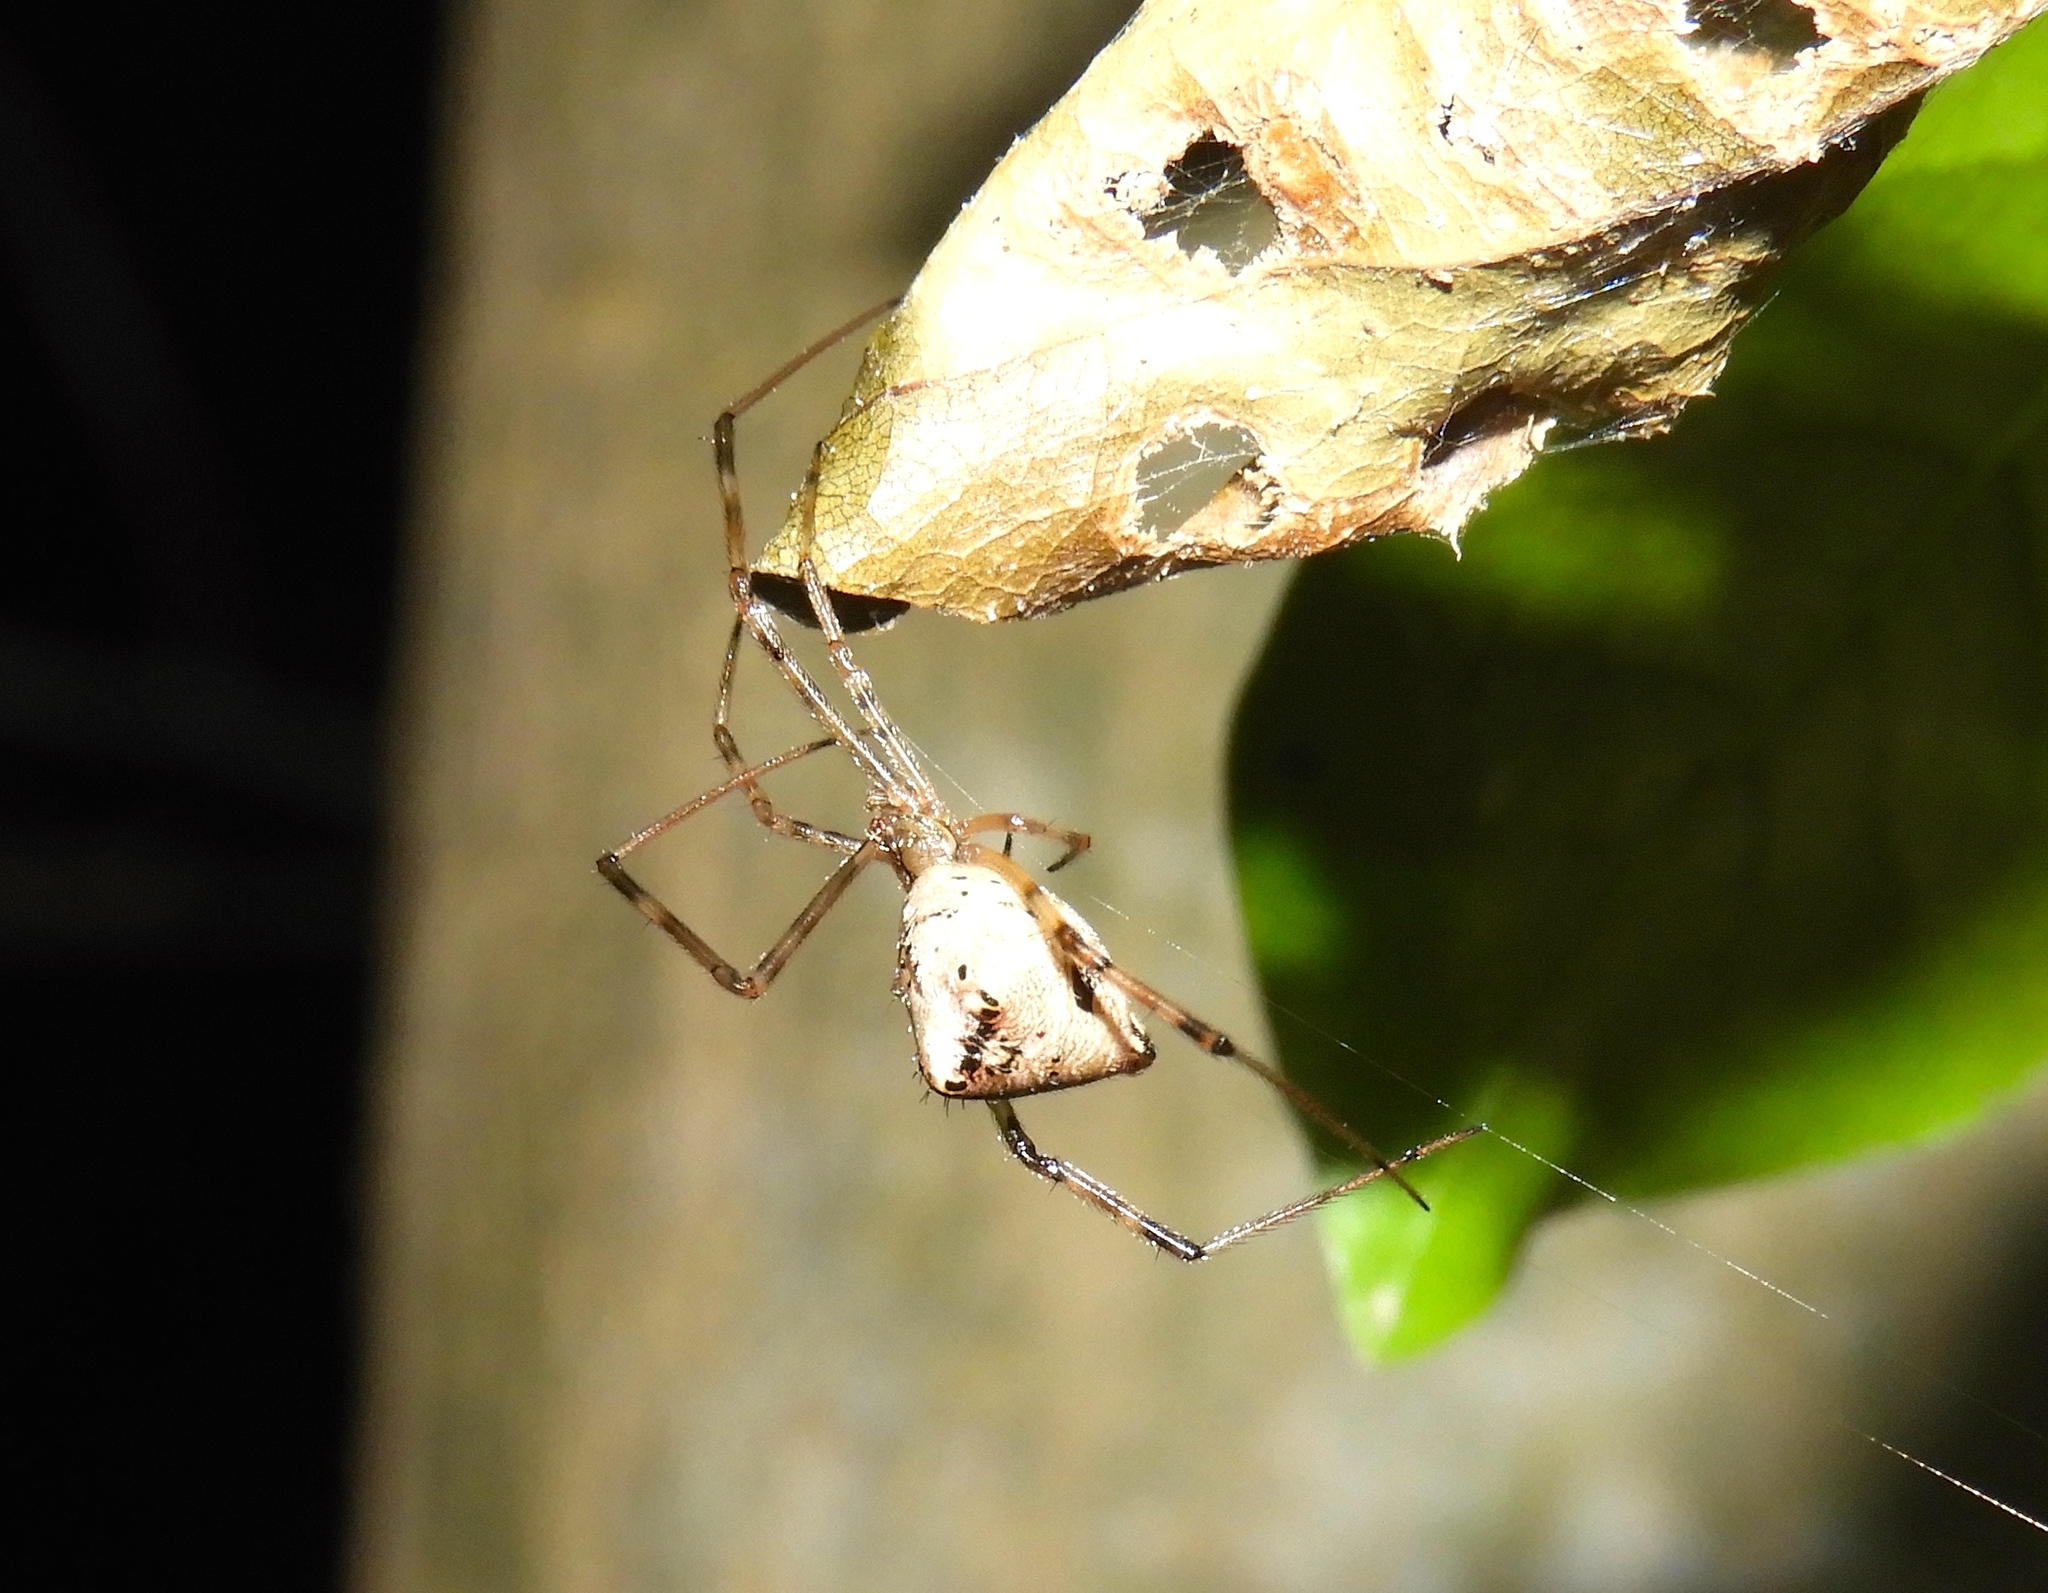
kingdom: Animalia
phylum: Arthropoda
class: Arachnida
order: Araneae
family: Theridiidae
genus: Neopisinus
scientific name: Neopisinus
